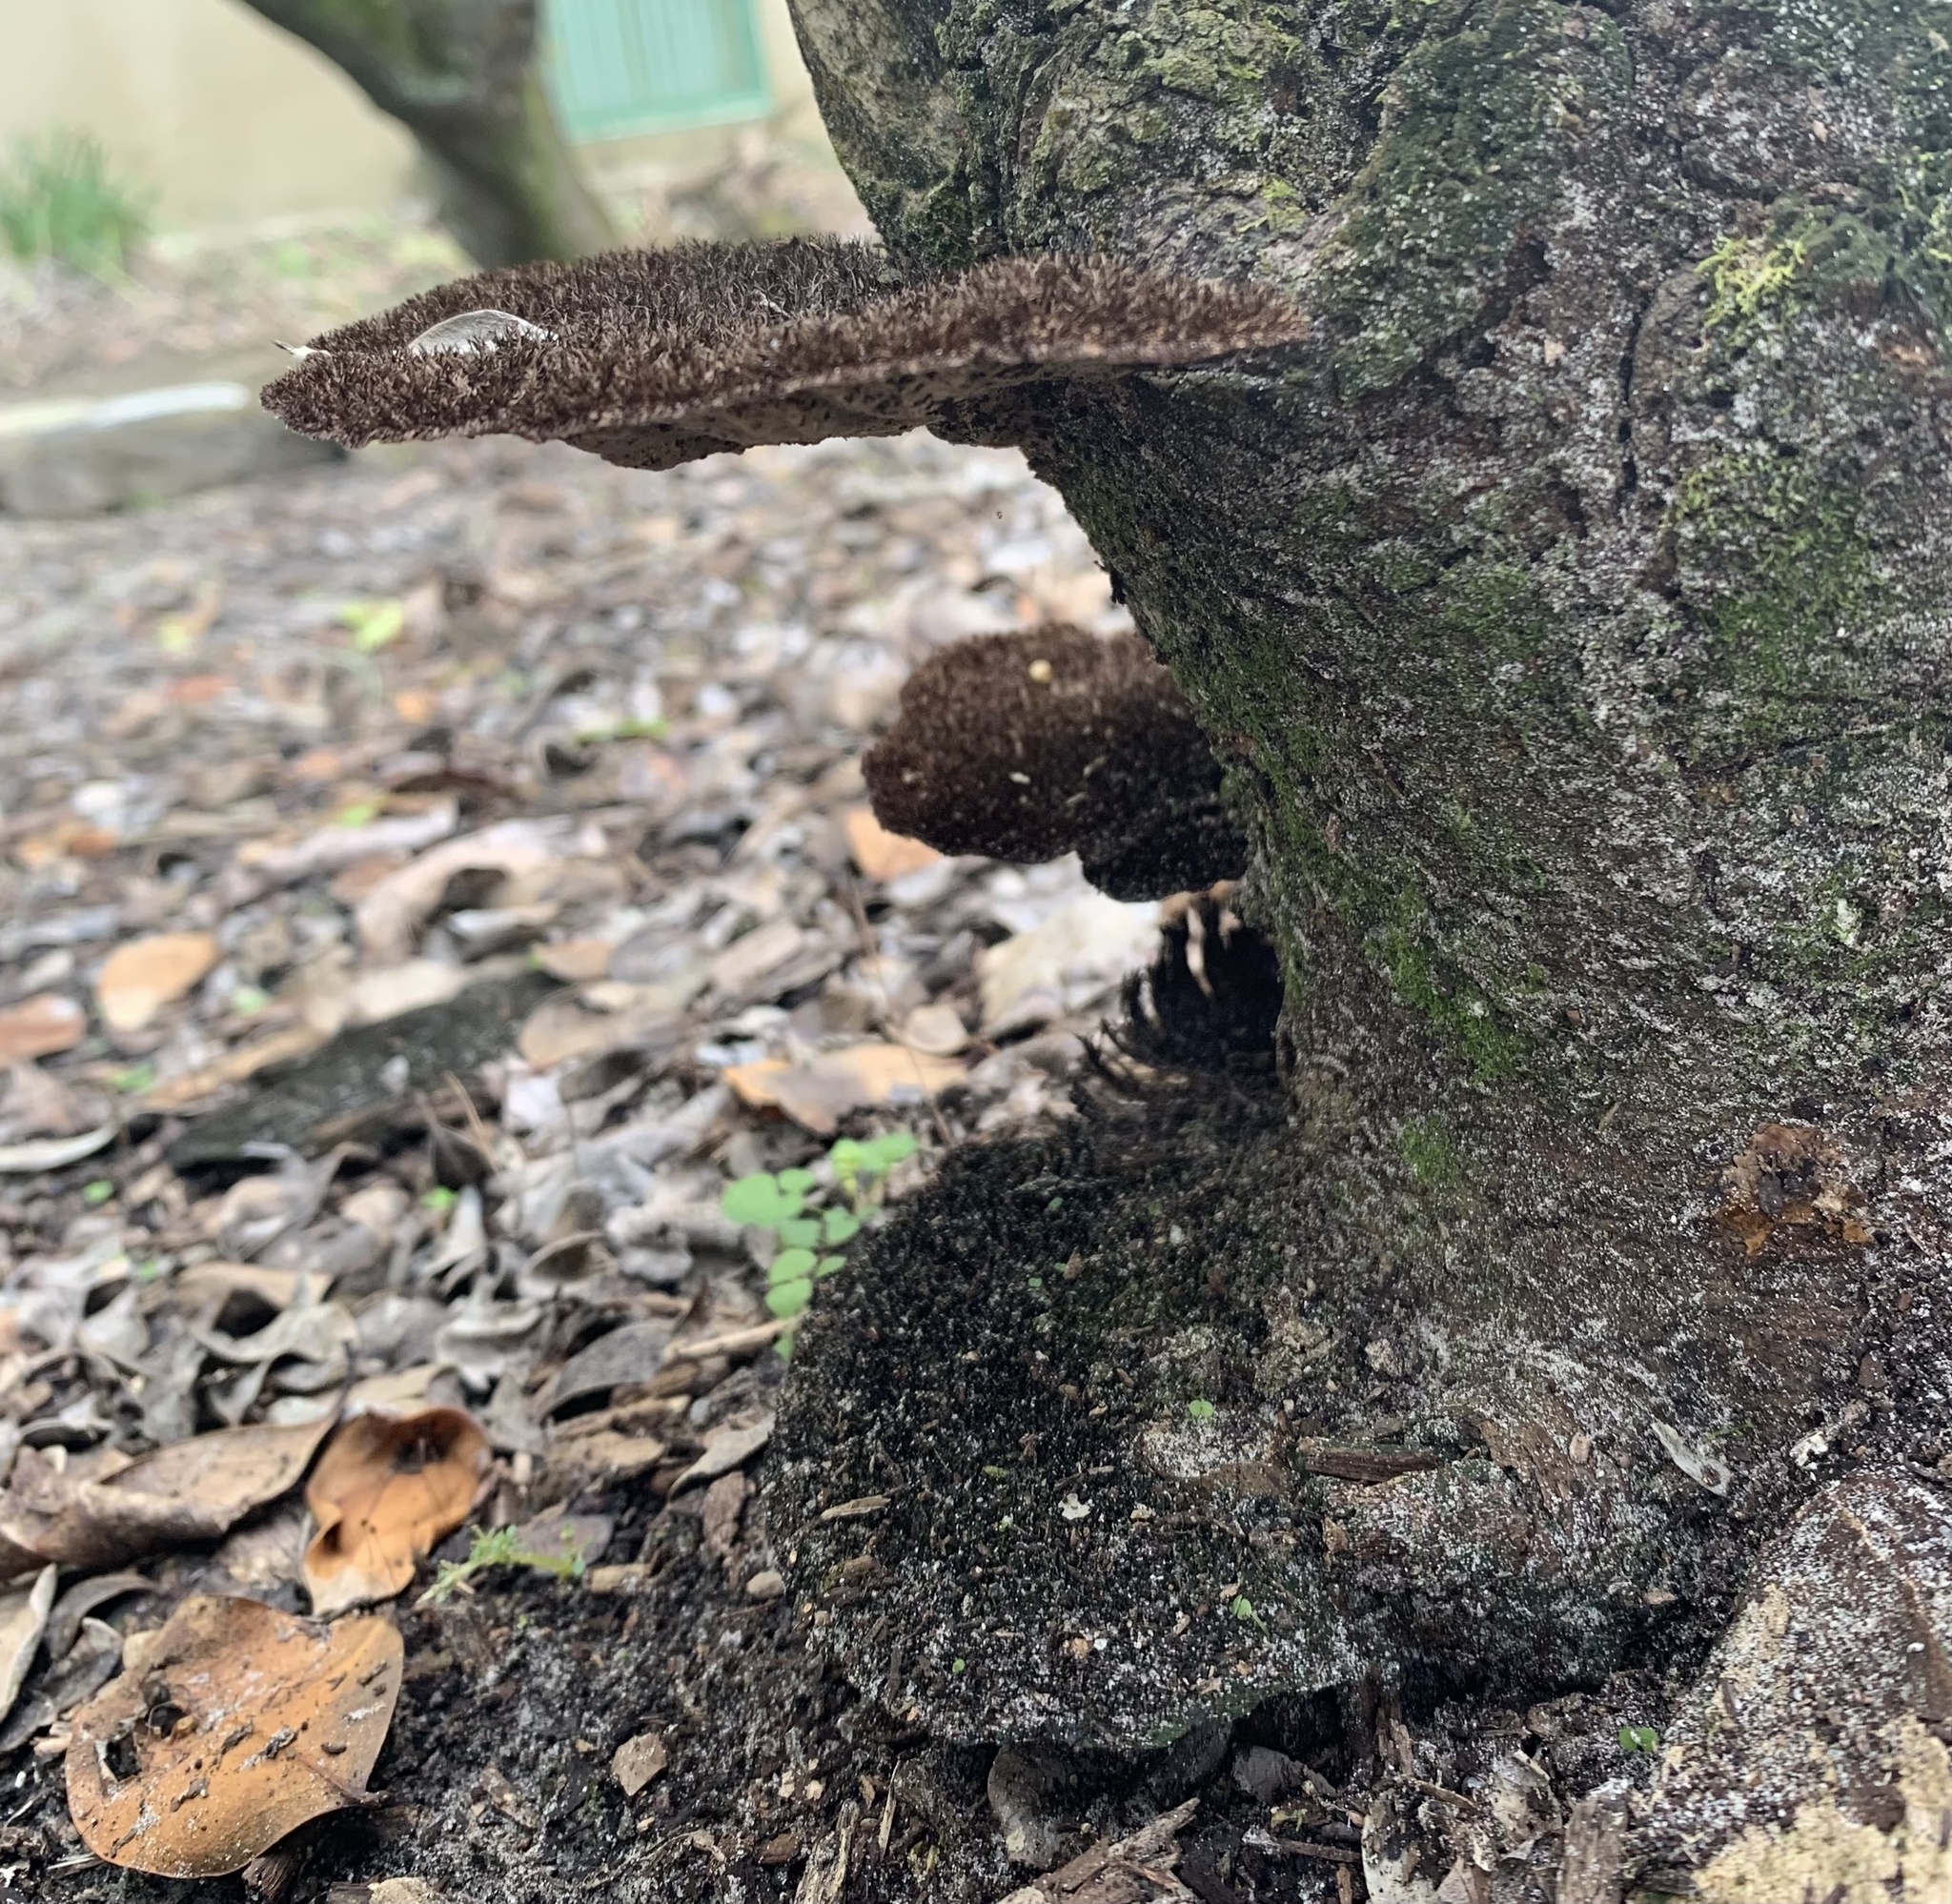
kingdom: Fungi
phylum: Basidiomycota
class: Agaricomycetes
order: Polyporales
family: Cerrenaceae
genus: Cerrena
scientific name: Cerrena hydnoides
